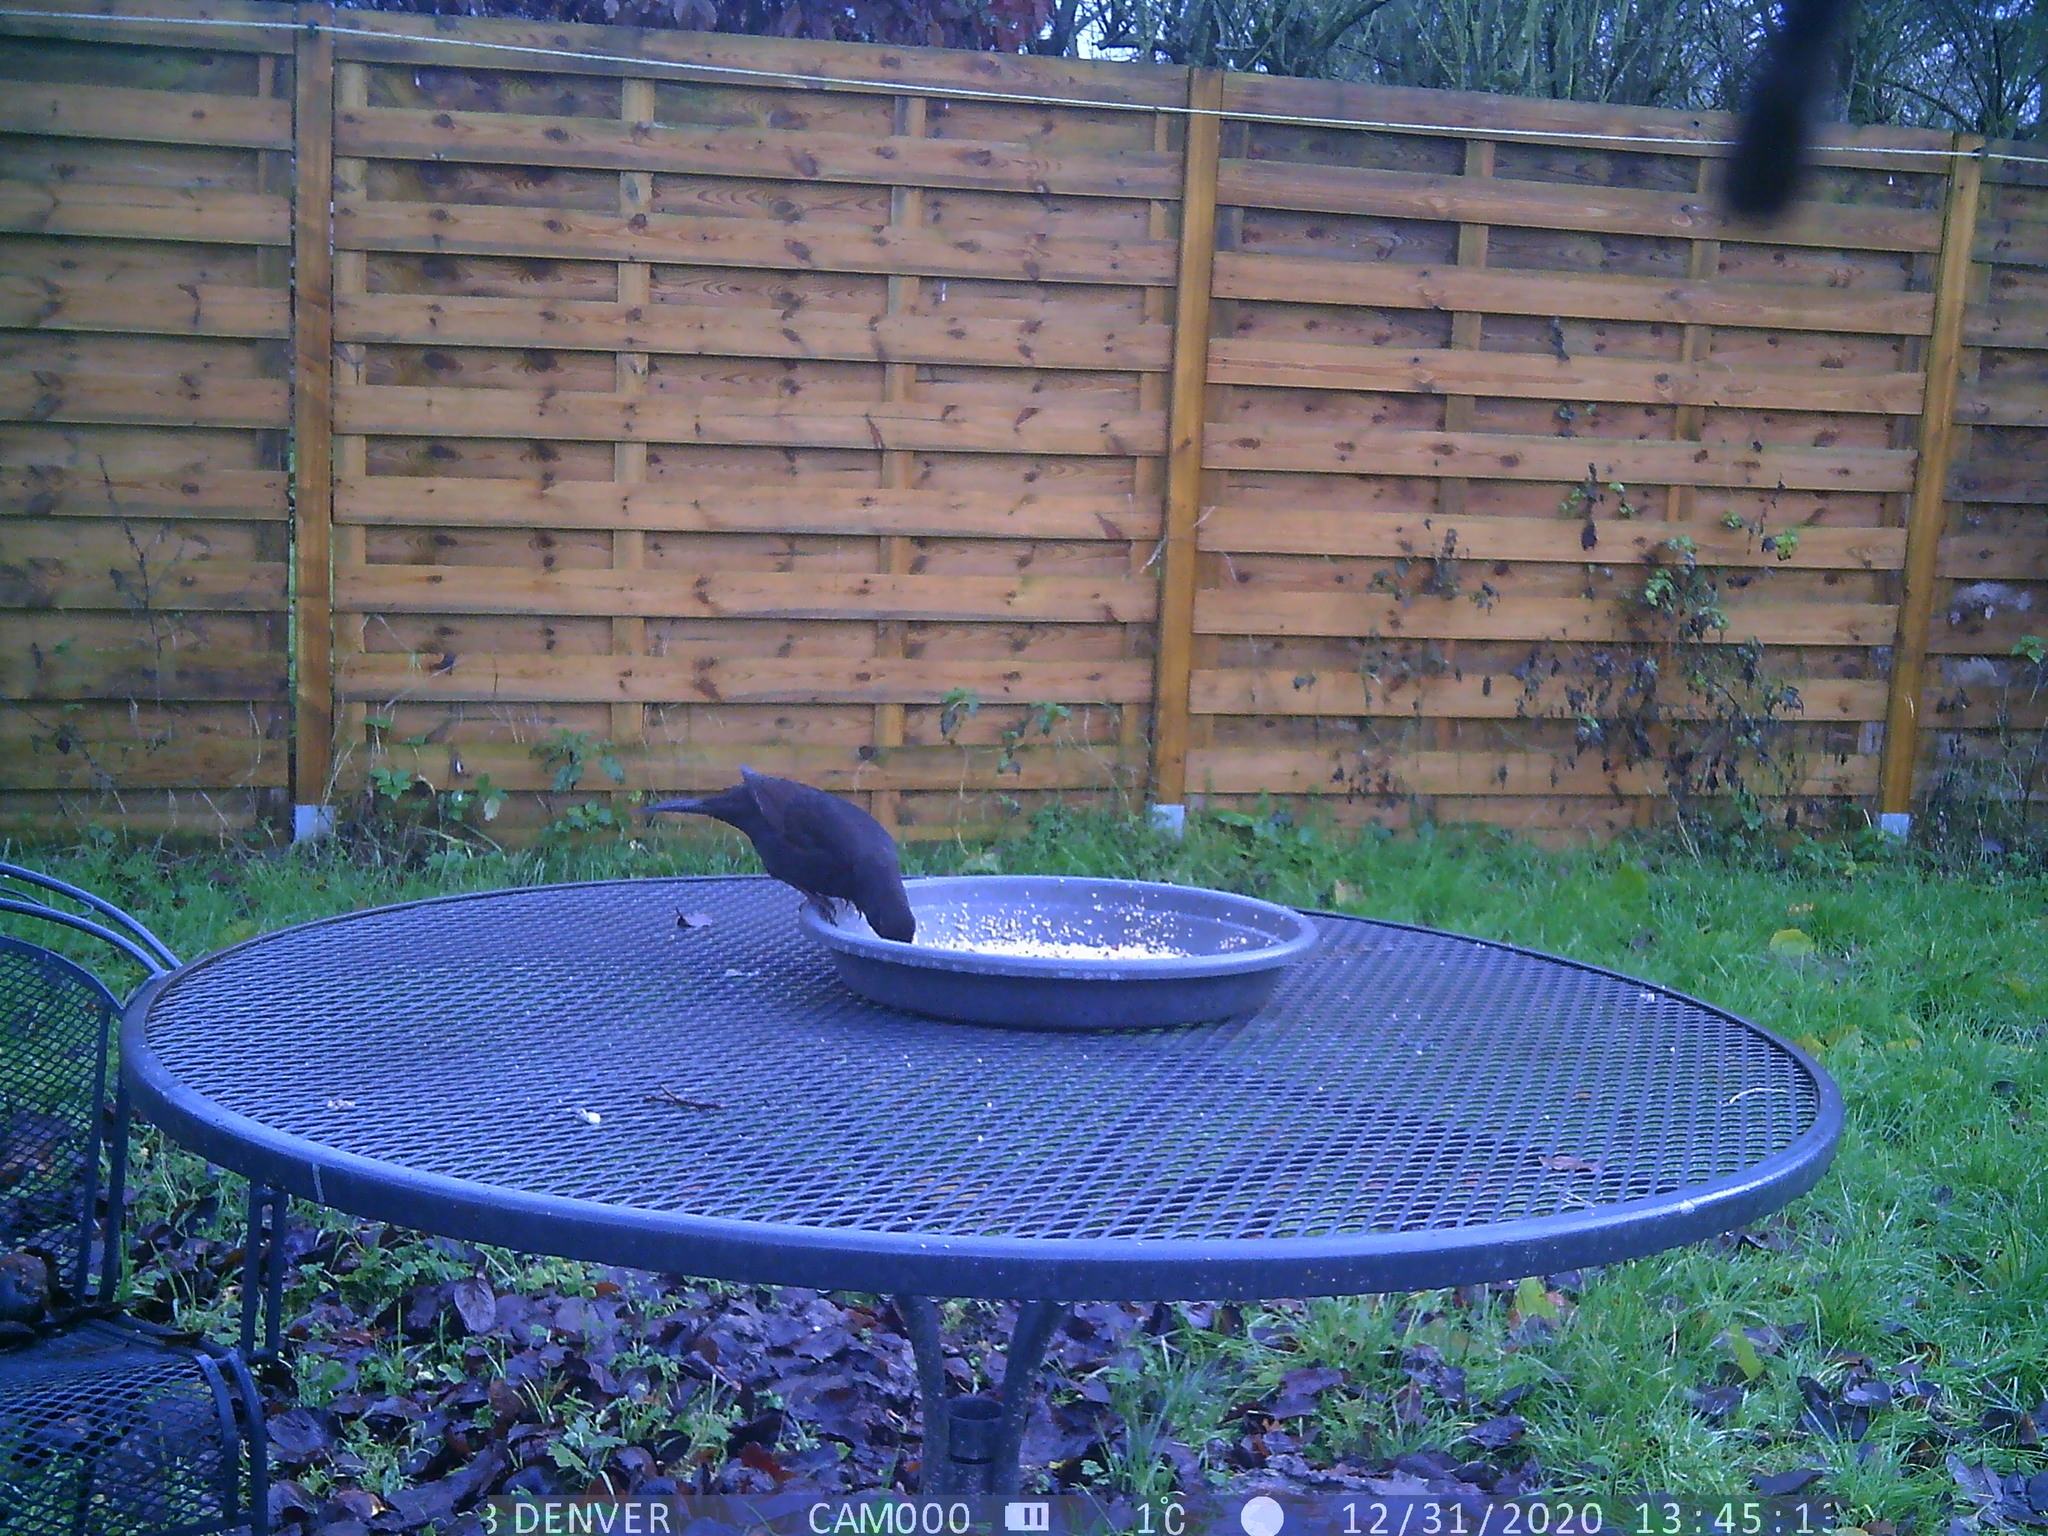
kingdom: Animalia
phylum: Chordata
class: Aves
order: Passeriformes
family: Turdidae
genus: Turdus
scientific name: Turdus merula
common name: Common blackbird
